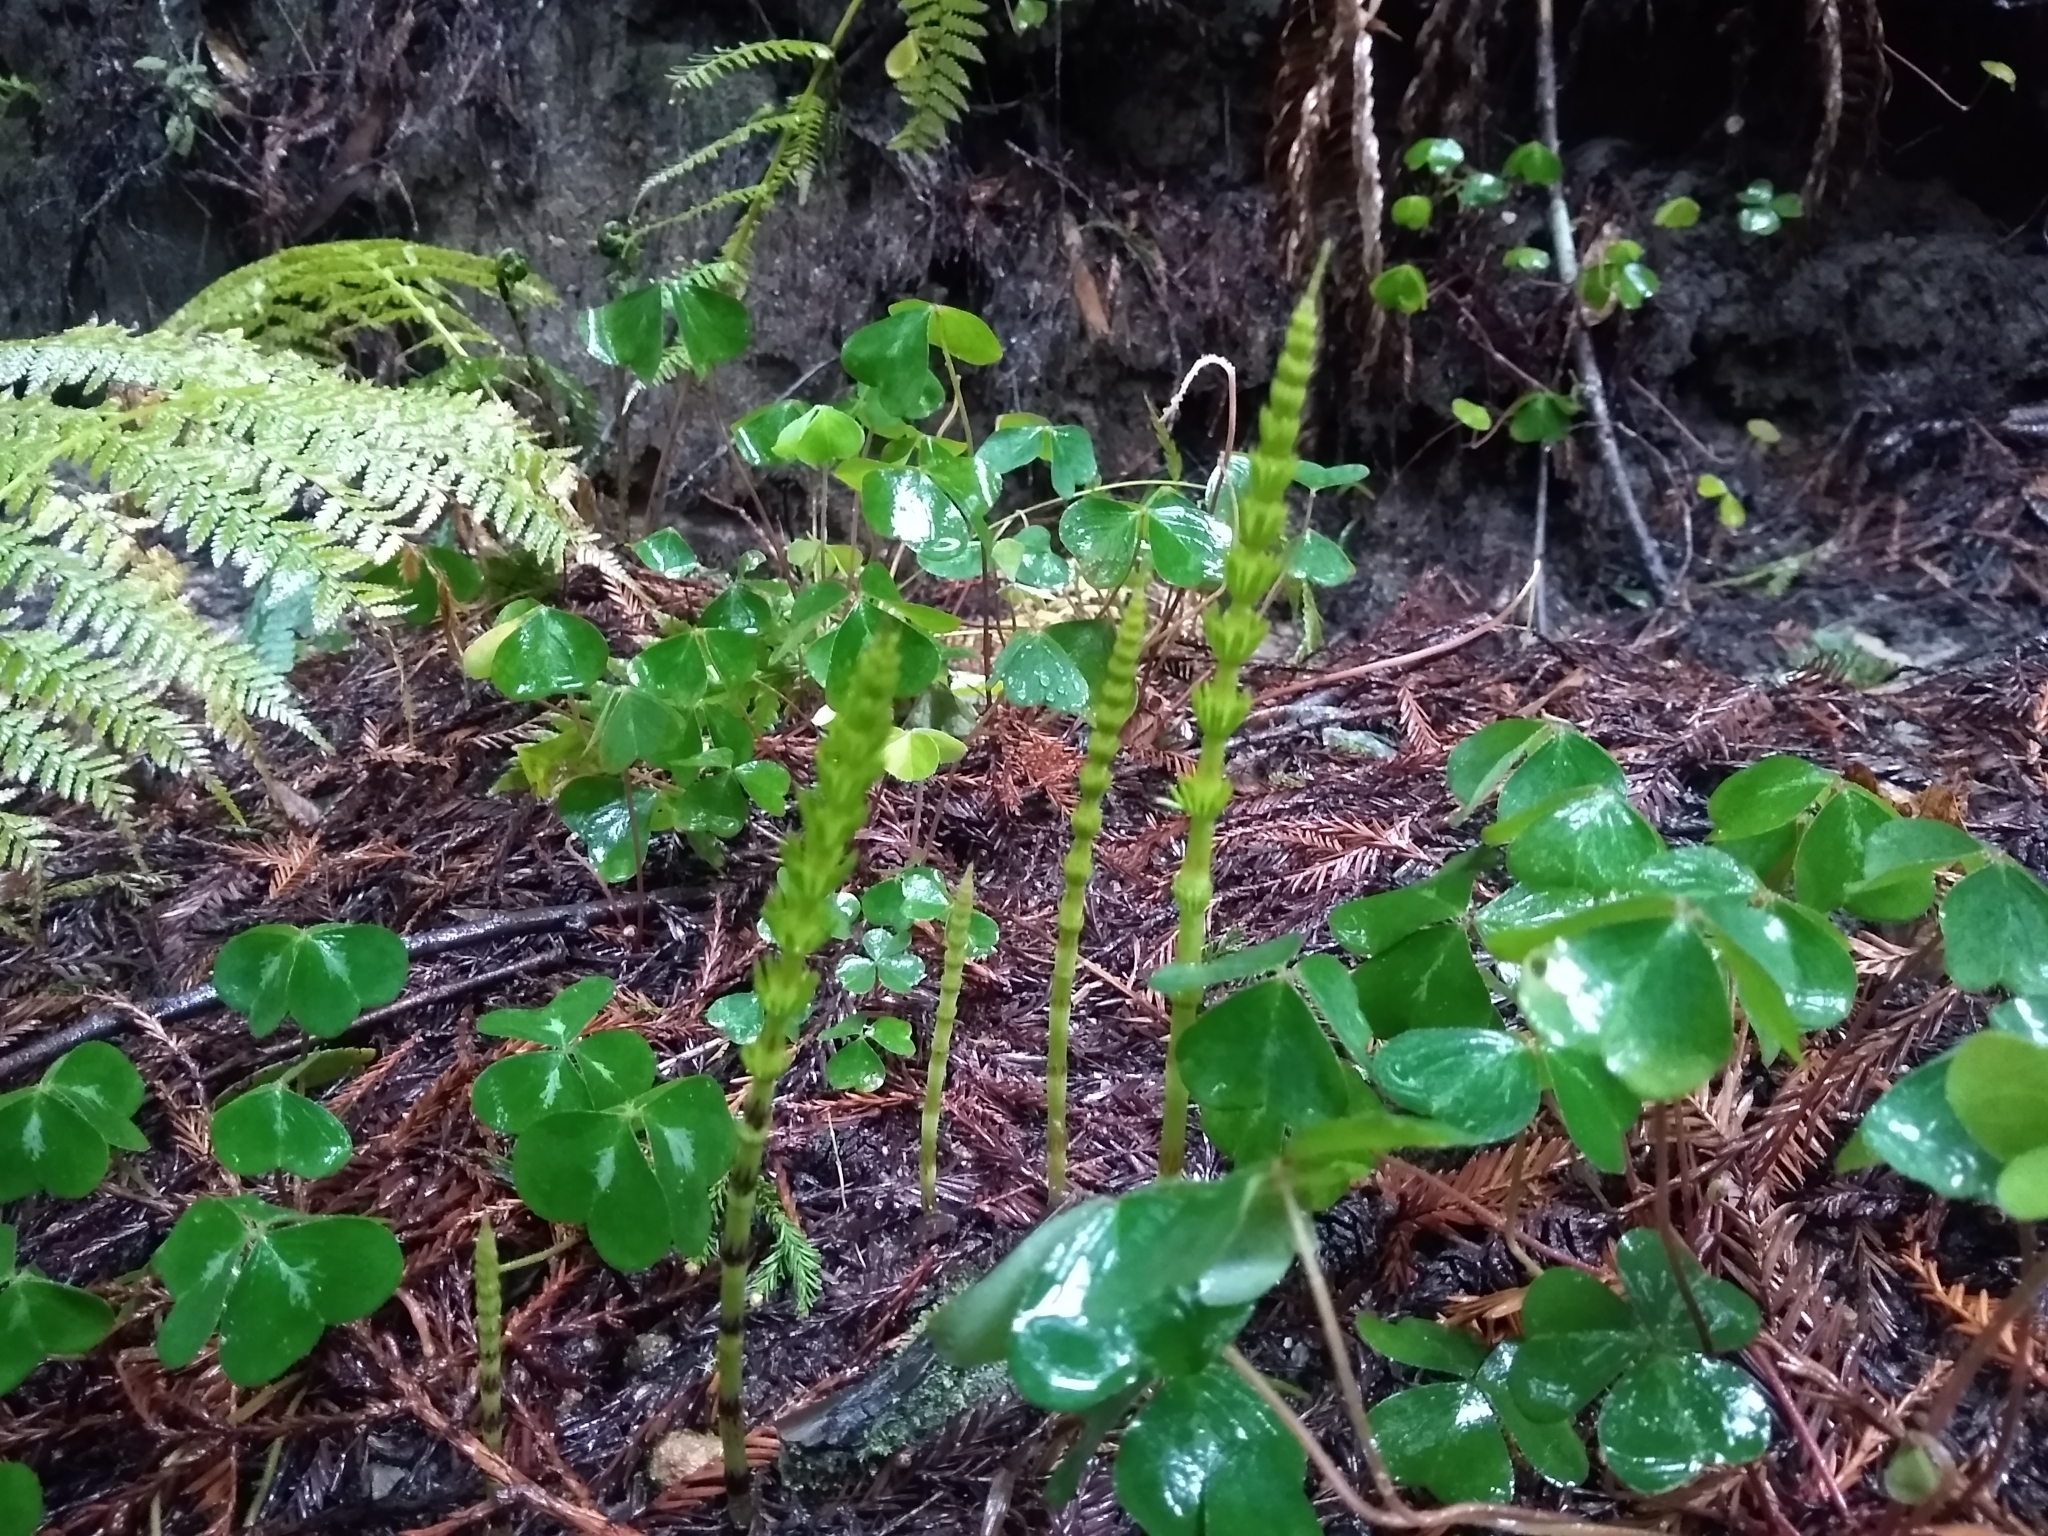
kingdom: Plantae
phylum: Tracheophyta
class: Polypodiopsida
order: Equisetales
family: Equisetaceae
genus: Equisetum
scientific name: Equisetum braunii
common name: Braun's horsetail
